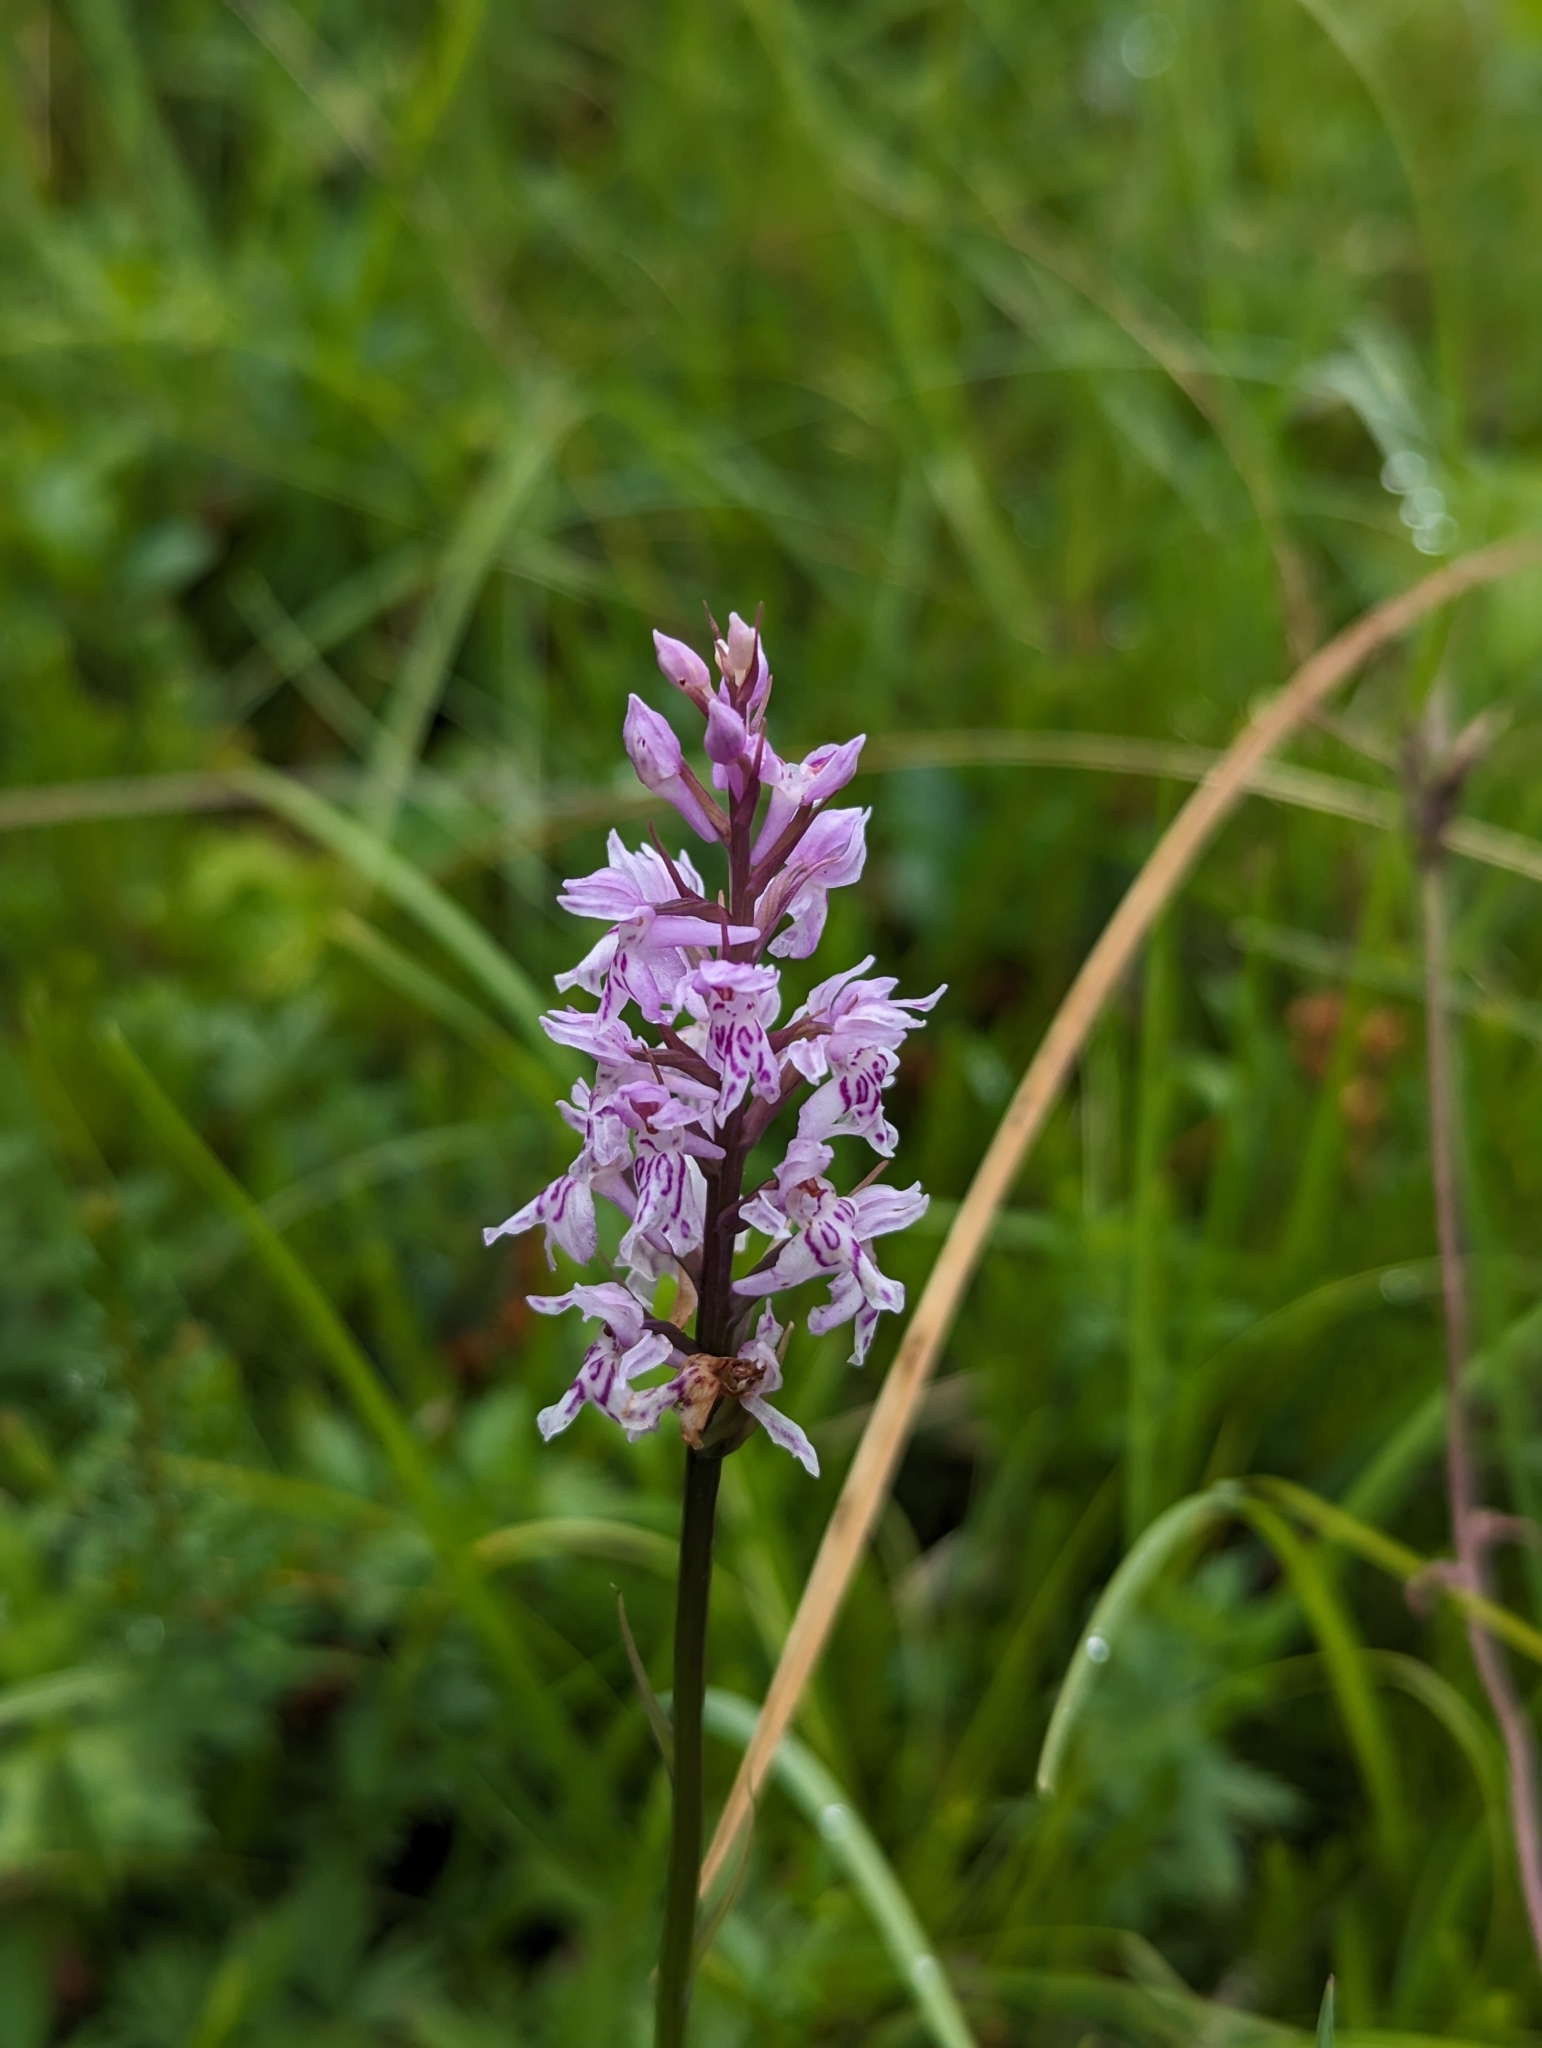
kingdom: Plantae
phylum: Tracheophyta
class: Liliopsida
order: Asparagales
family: Orchidaceae
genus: Dactylorhiza
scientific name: Dactylorhiza maculata
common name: Heath spotted-orchid
